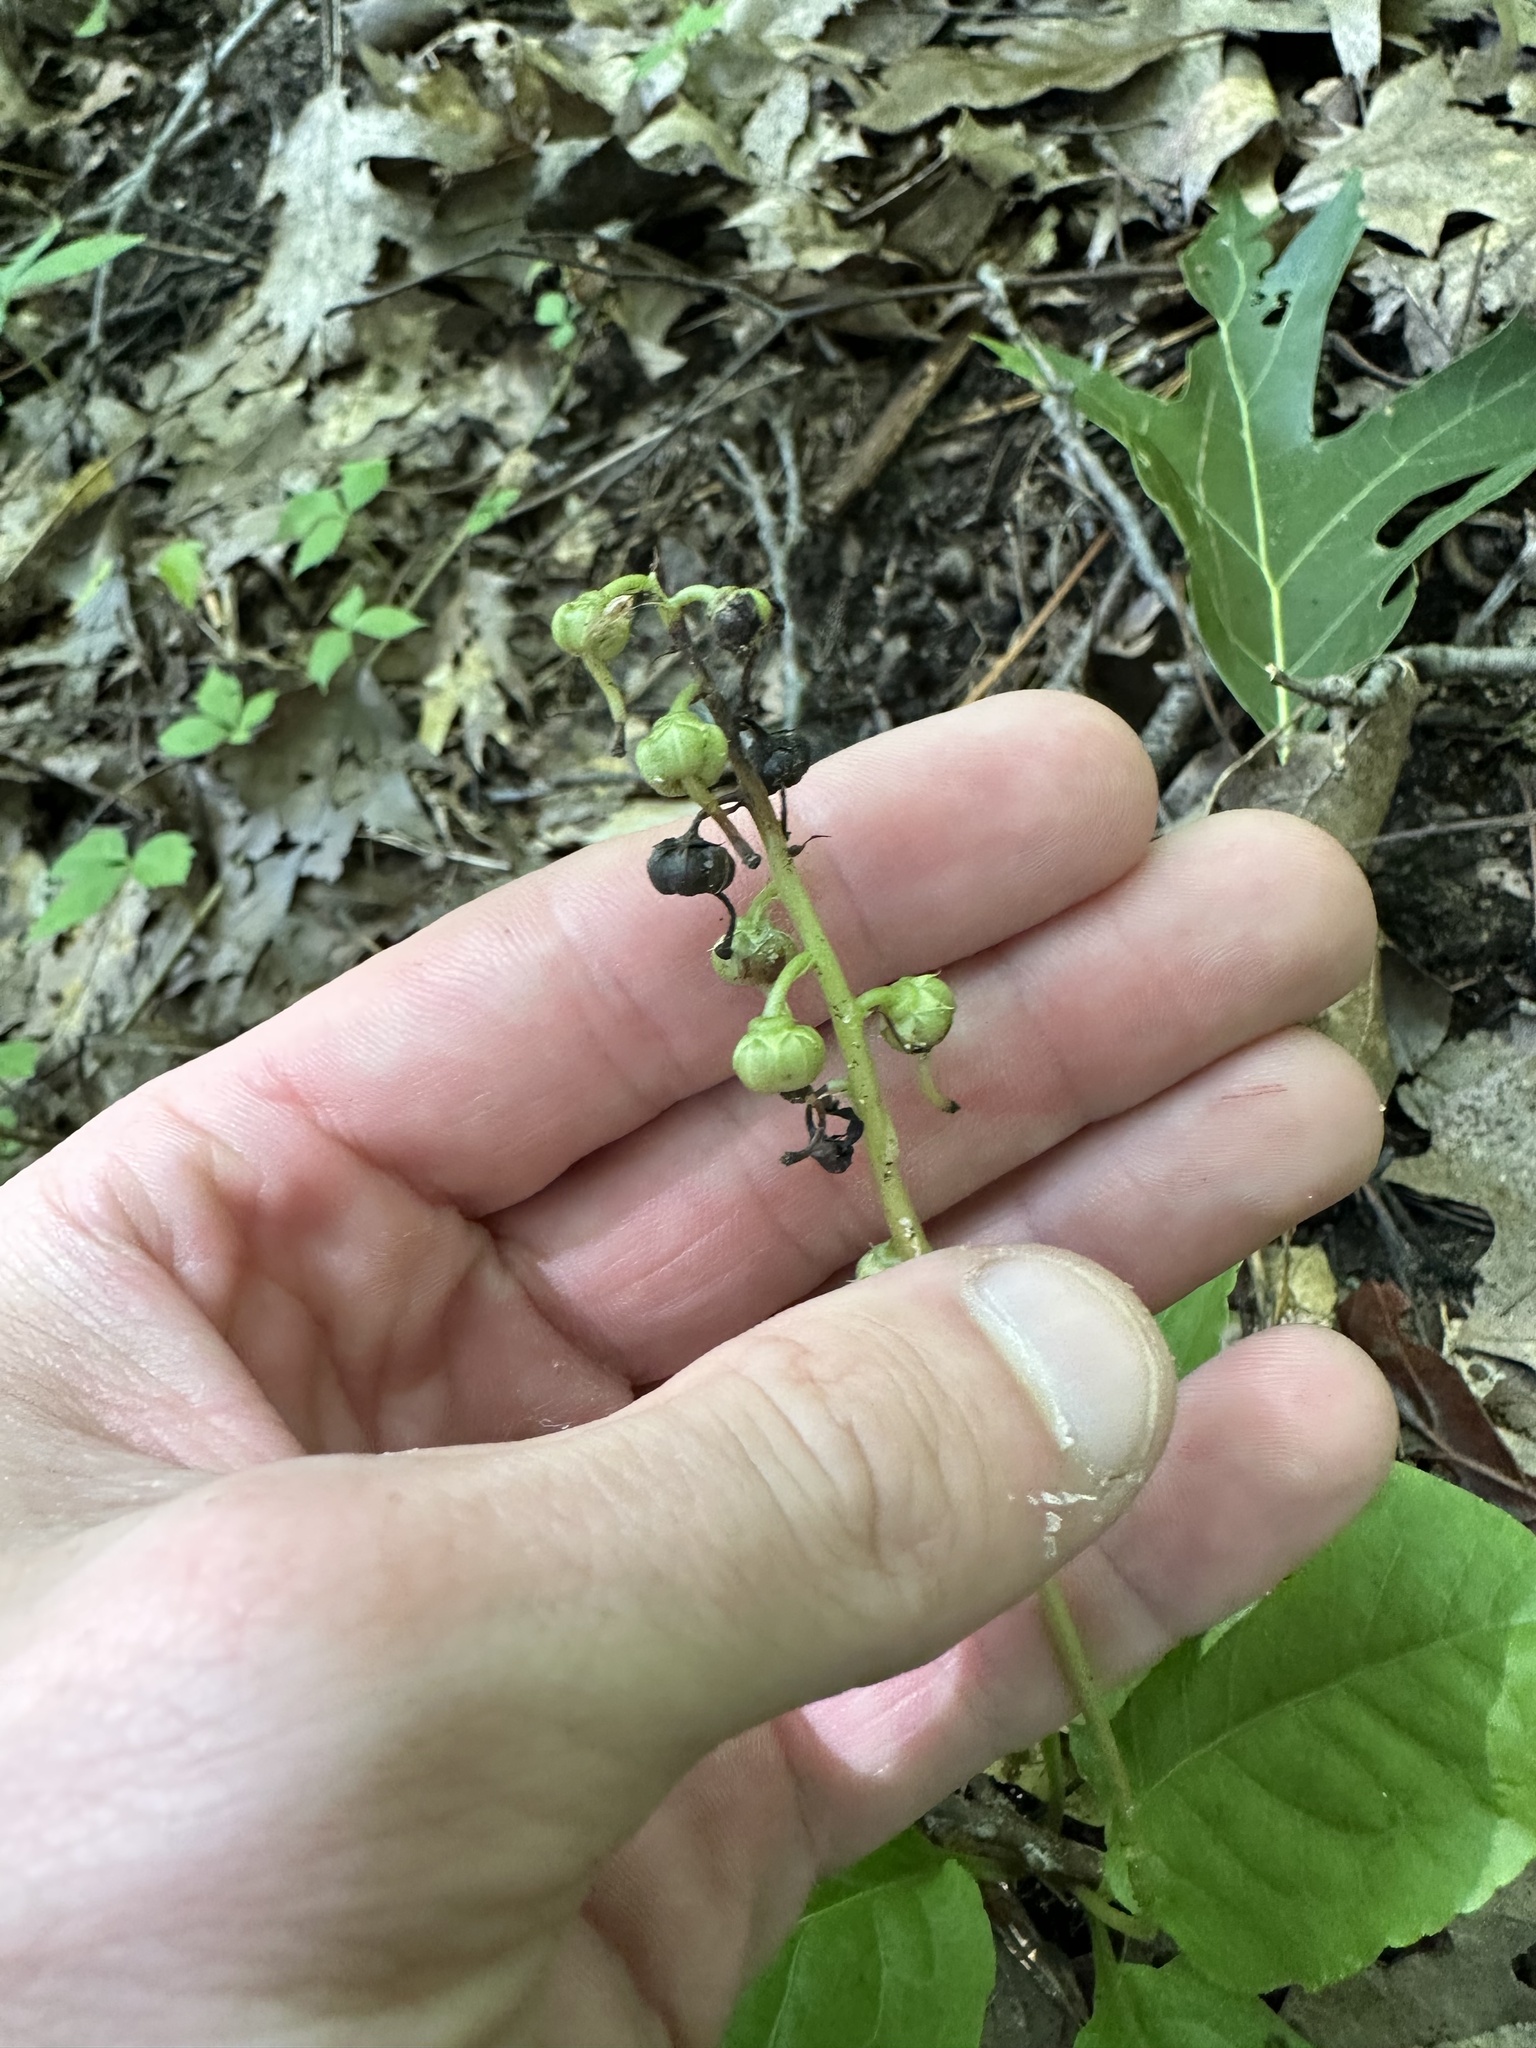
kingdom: Plantae
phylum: Tracheophyta
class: Magnoliopsida
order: Ericales
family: Ericaceae
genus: Pyrola
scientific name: Pyrola elliptica
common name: Shinleaf
